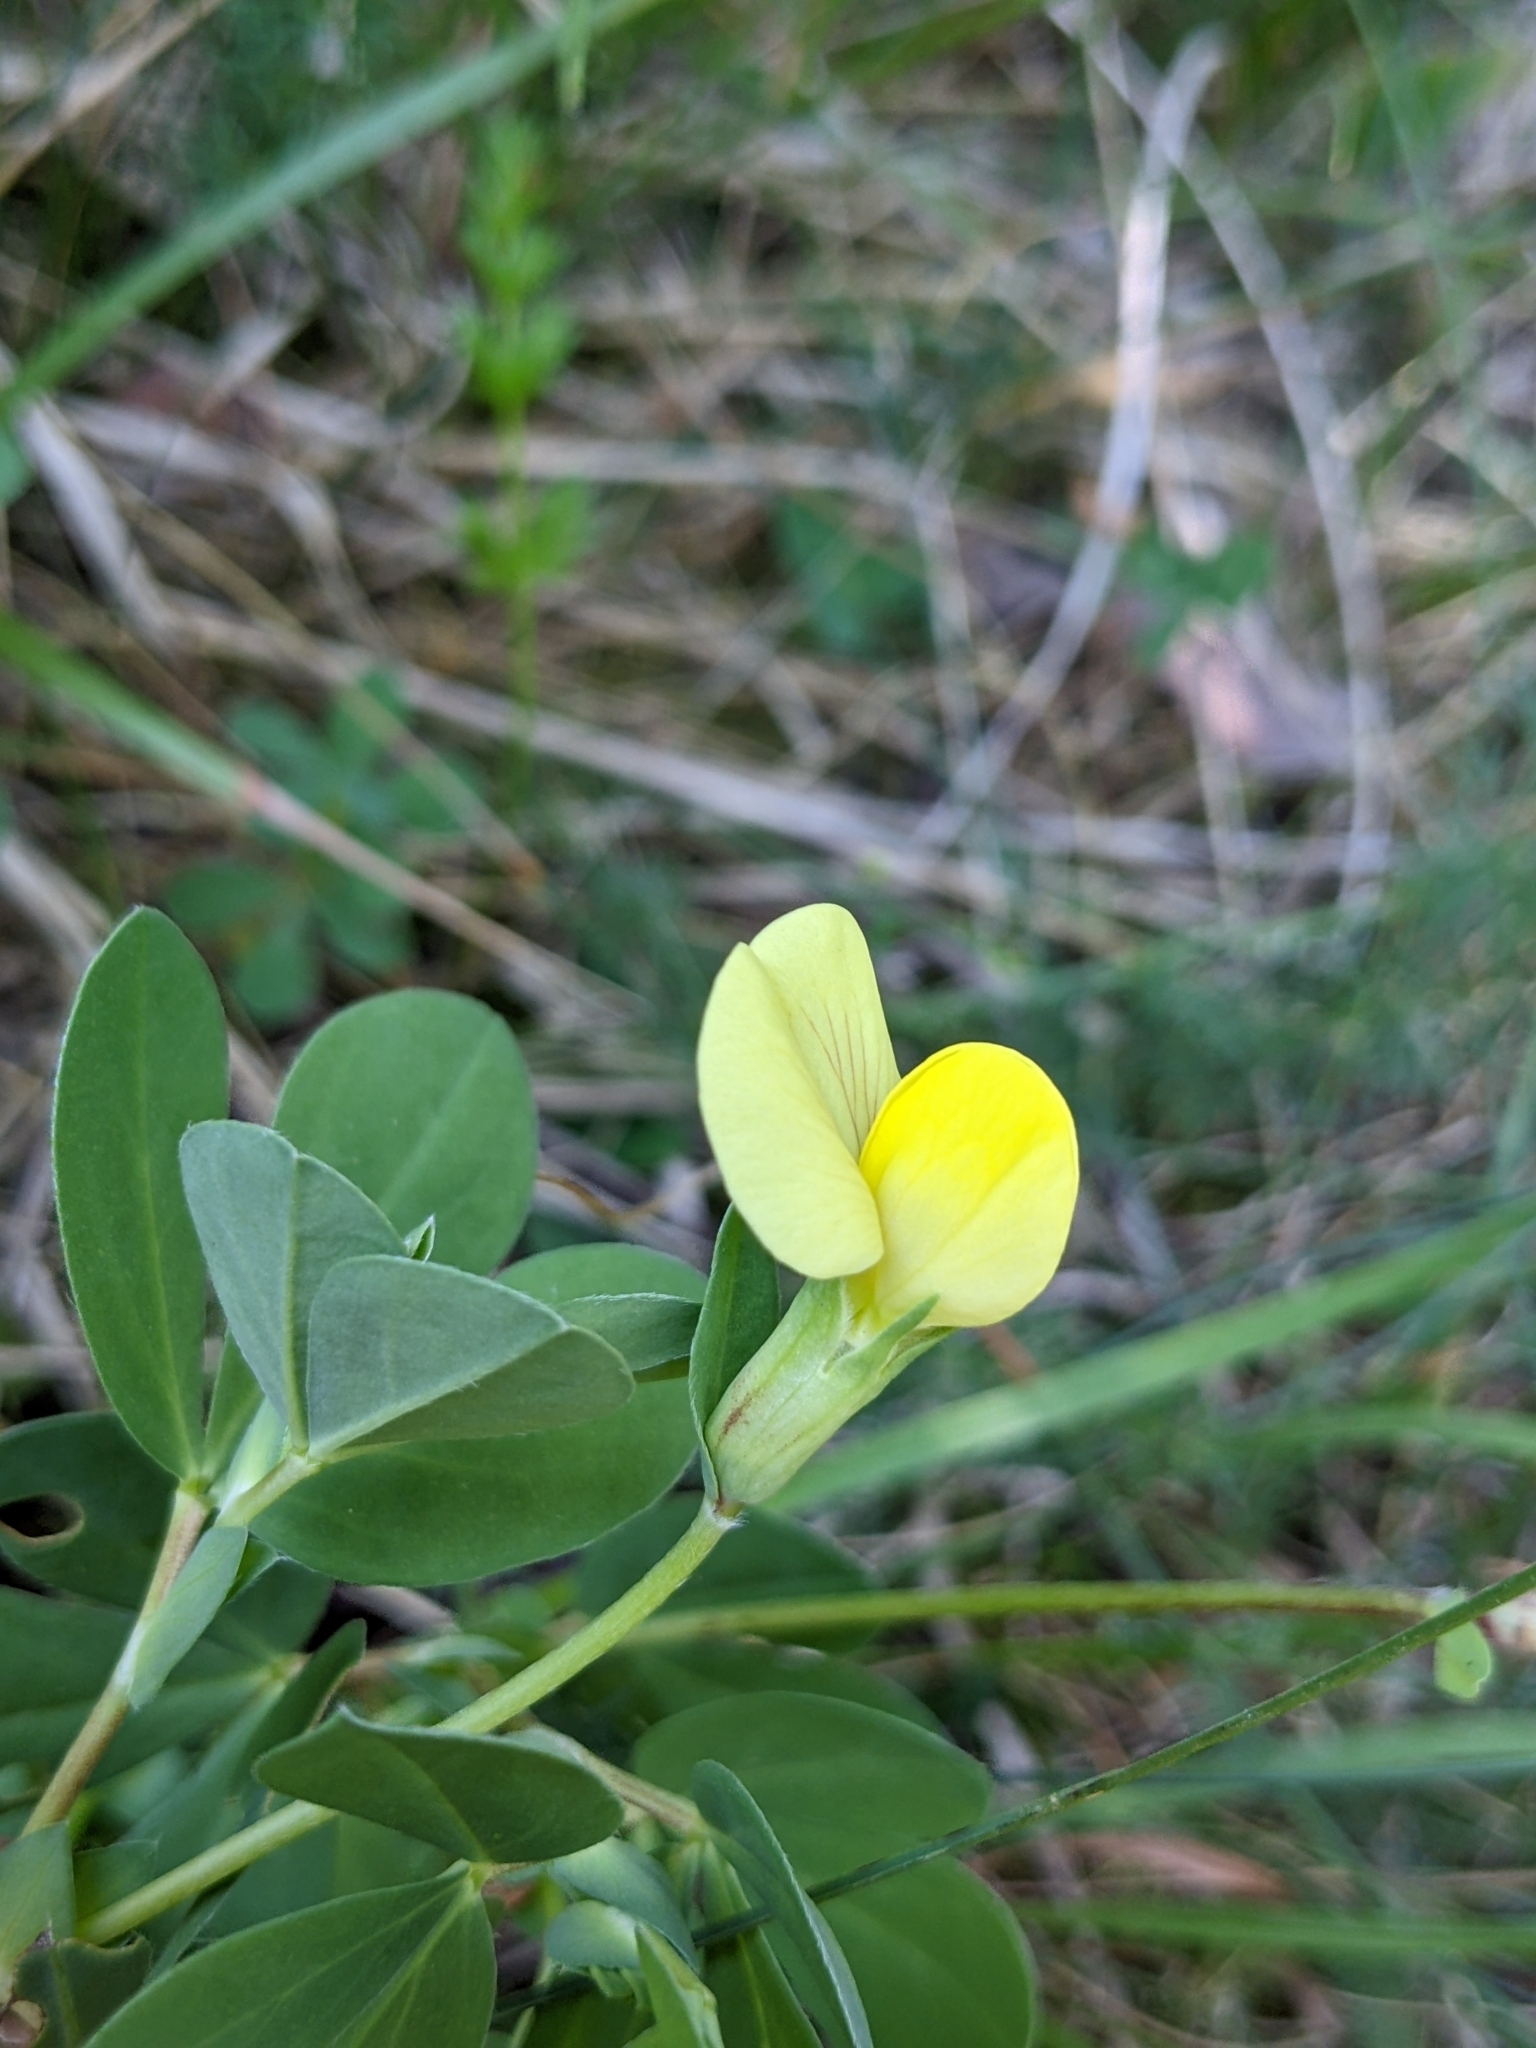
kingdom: Plantae
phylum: Tracheophyta
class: Magnoliopsida
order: Fabales
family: Fabaceae
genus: Lotus
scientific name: Lotus maritimus
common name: Dragon's-teeth
